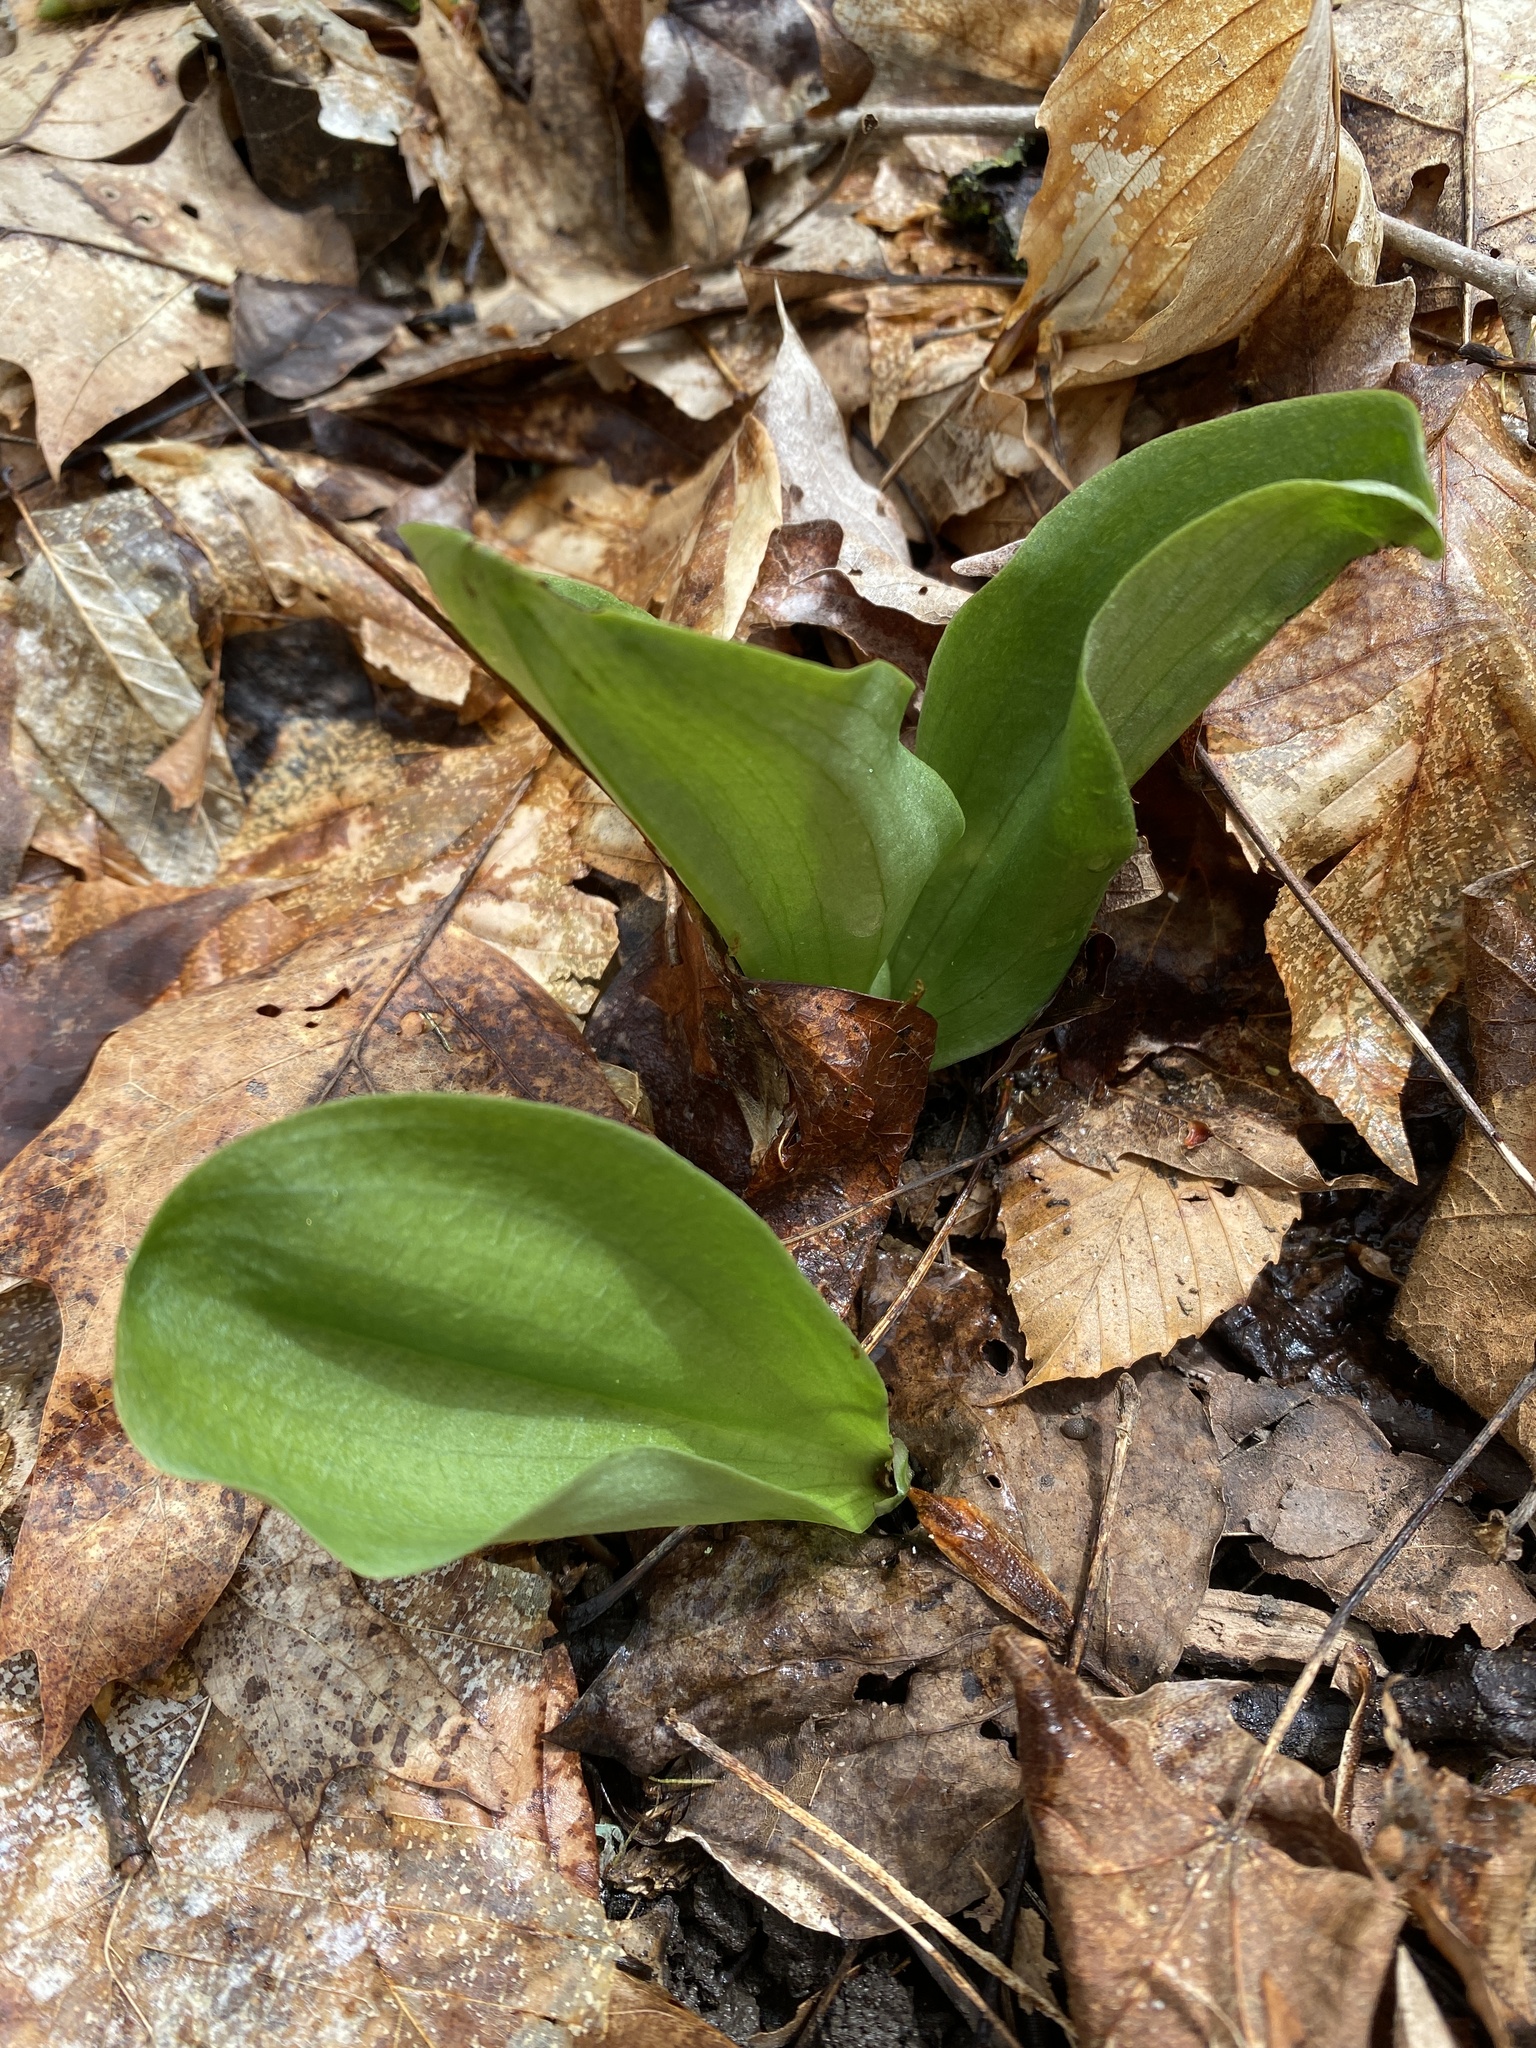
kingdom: Plantae
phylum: Tracheophyta
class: Liliopsida
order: Asparagales
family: Orchidaceae
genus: Galearis
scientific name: Galearis spectabilis
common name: Purple-hooded orchis
